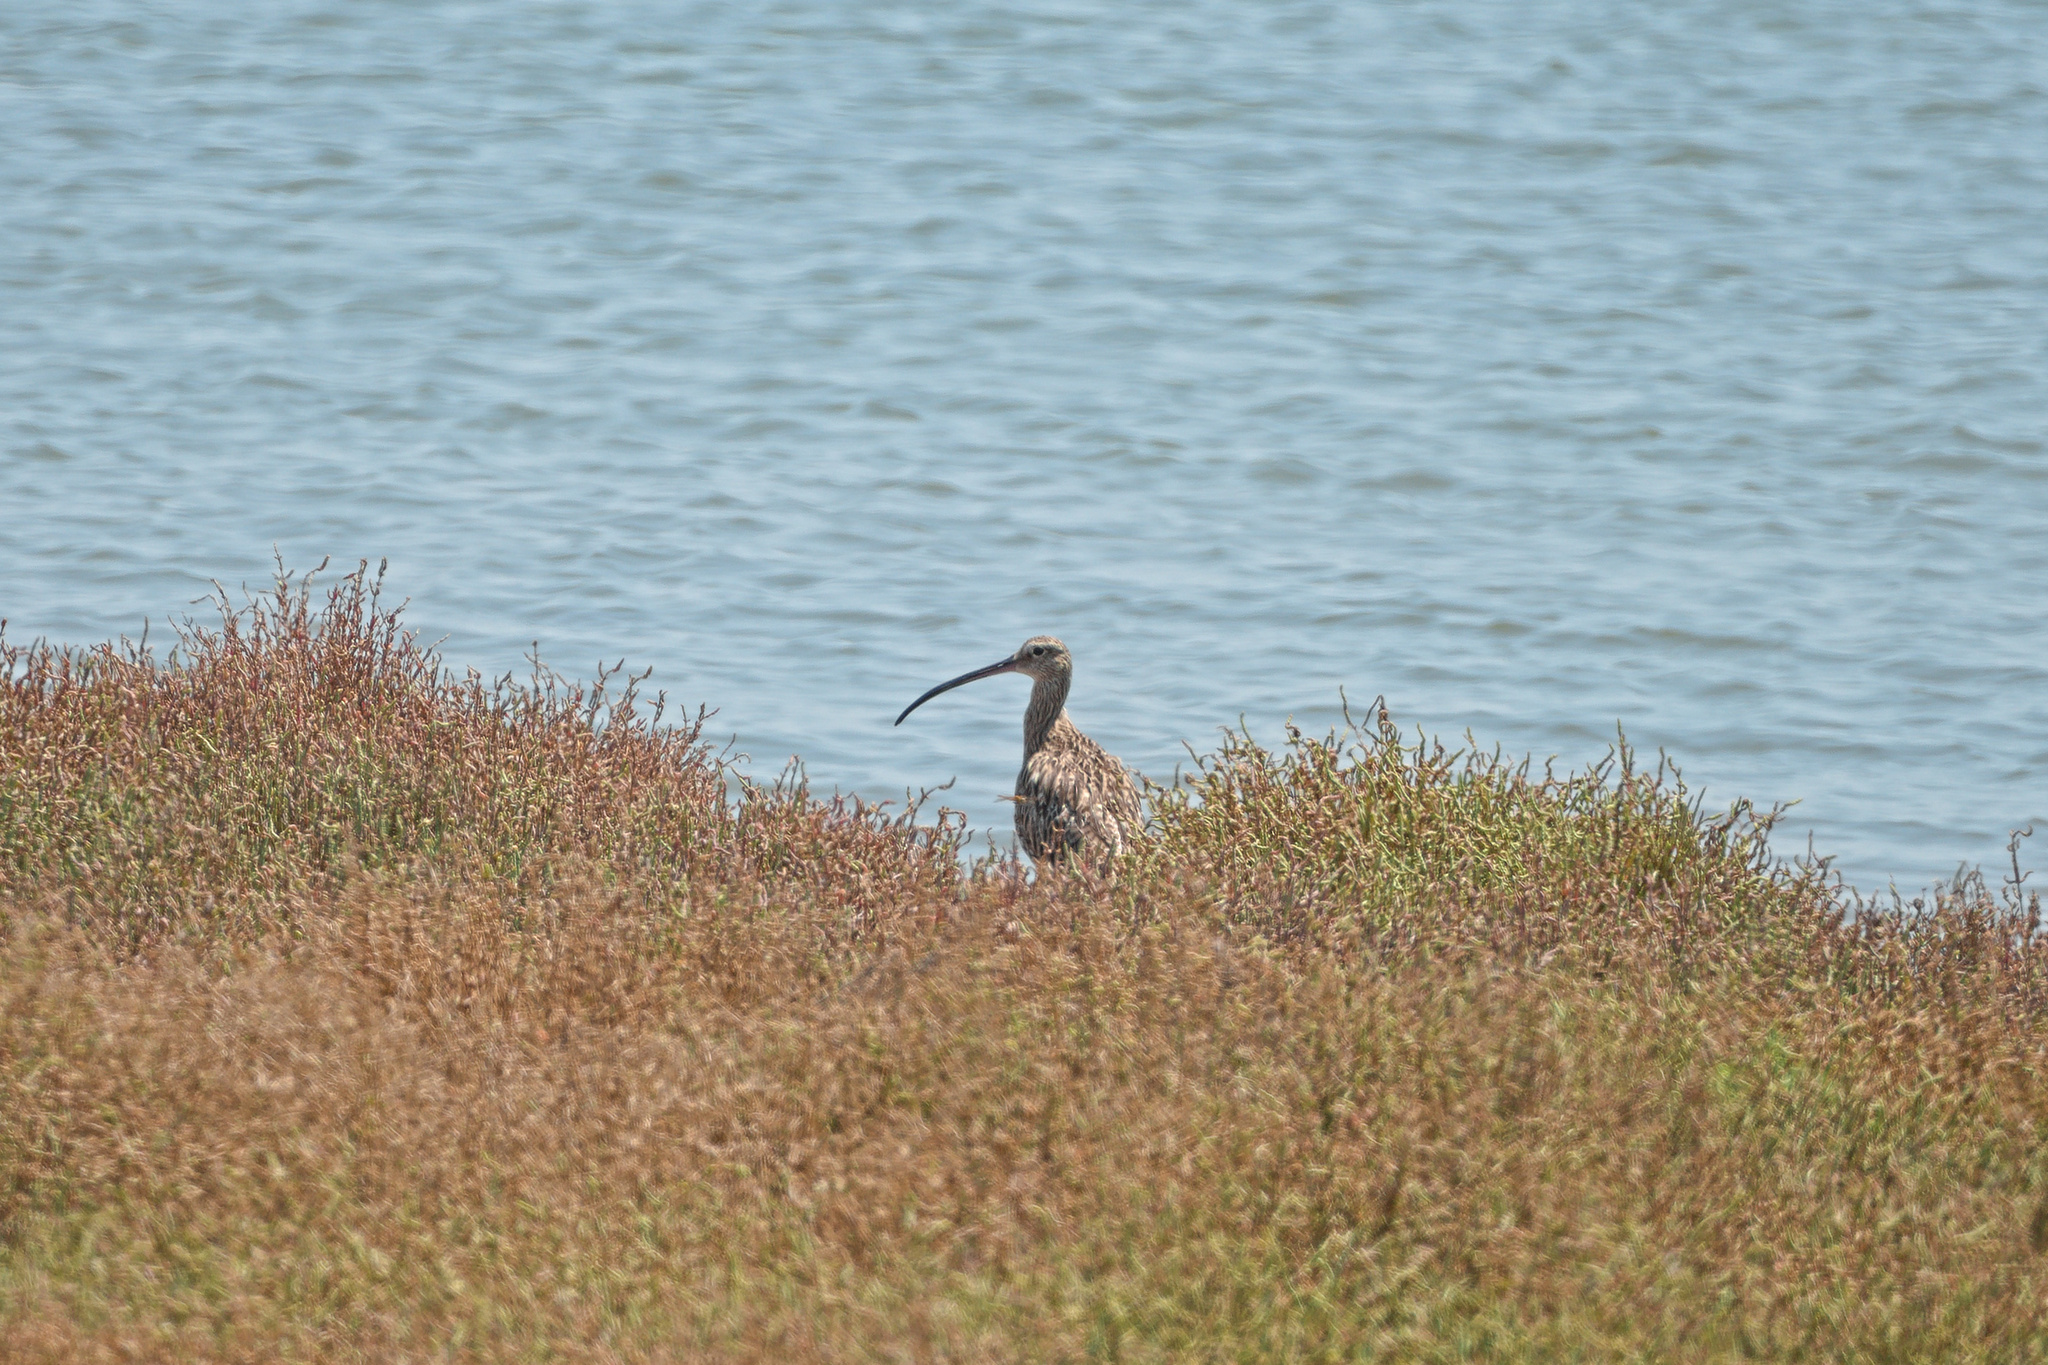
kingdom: Animalia
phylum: Chordata
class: Aves
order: Charadriiformes
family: Scolopacidae
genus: Numenius
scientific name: Numenius arquata
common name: Eurasian curlew
